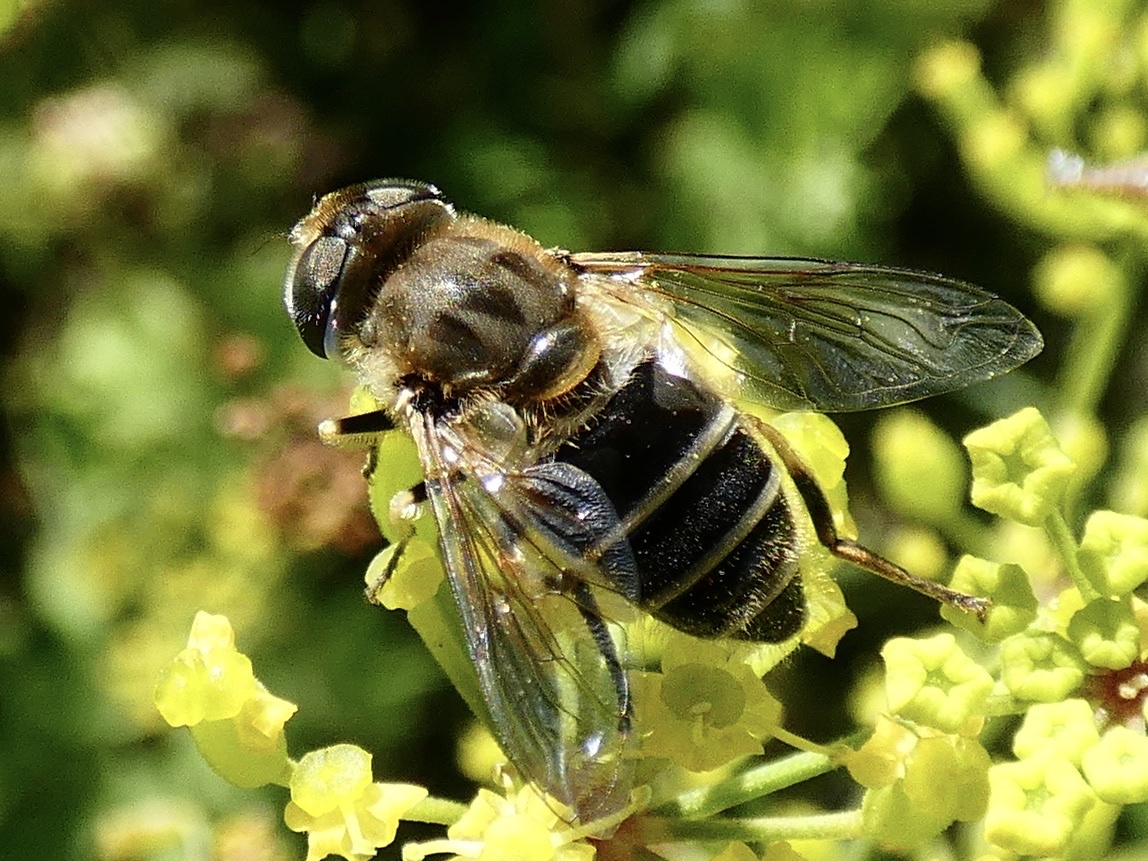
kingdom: Animalia
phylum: Arthropoda
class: Insecta
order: Diptera
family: Syrphidae
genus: Eristalis
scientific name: Eristalis arbustorum
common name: Hover fly
